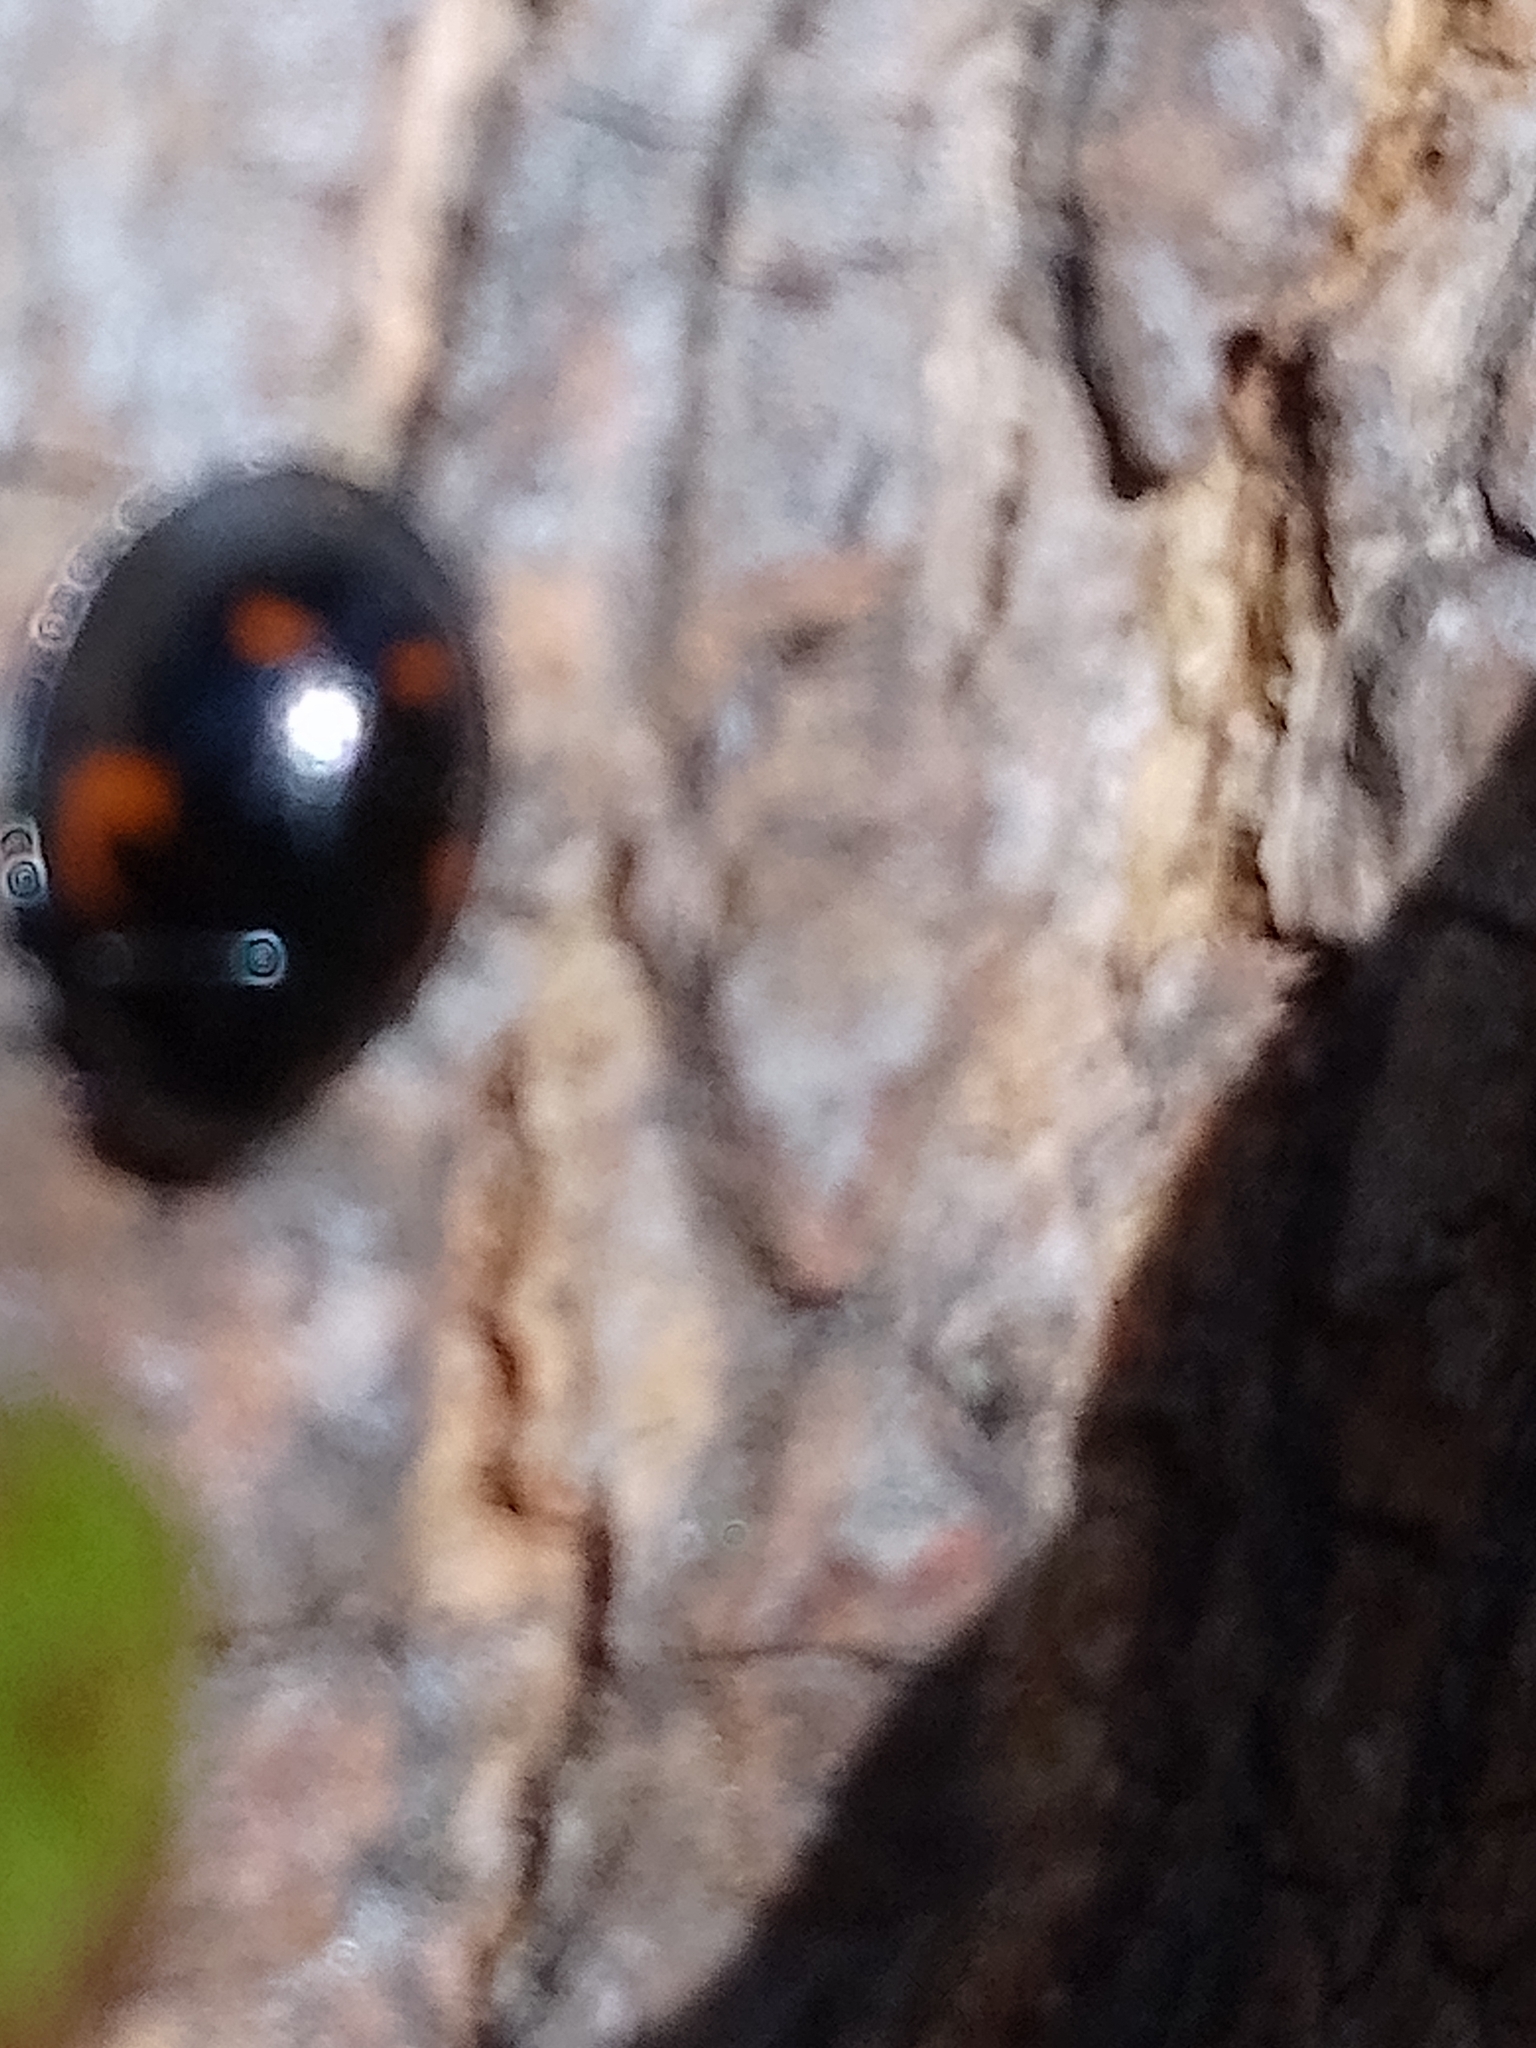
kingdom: Animalia
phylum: Arthropoda
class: Insecta
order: Coleoptera
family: Coccinellidae
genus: Brumus
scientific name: Brumus quadripustulatus
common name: Ladybird beetle
